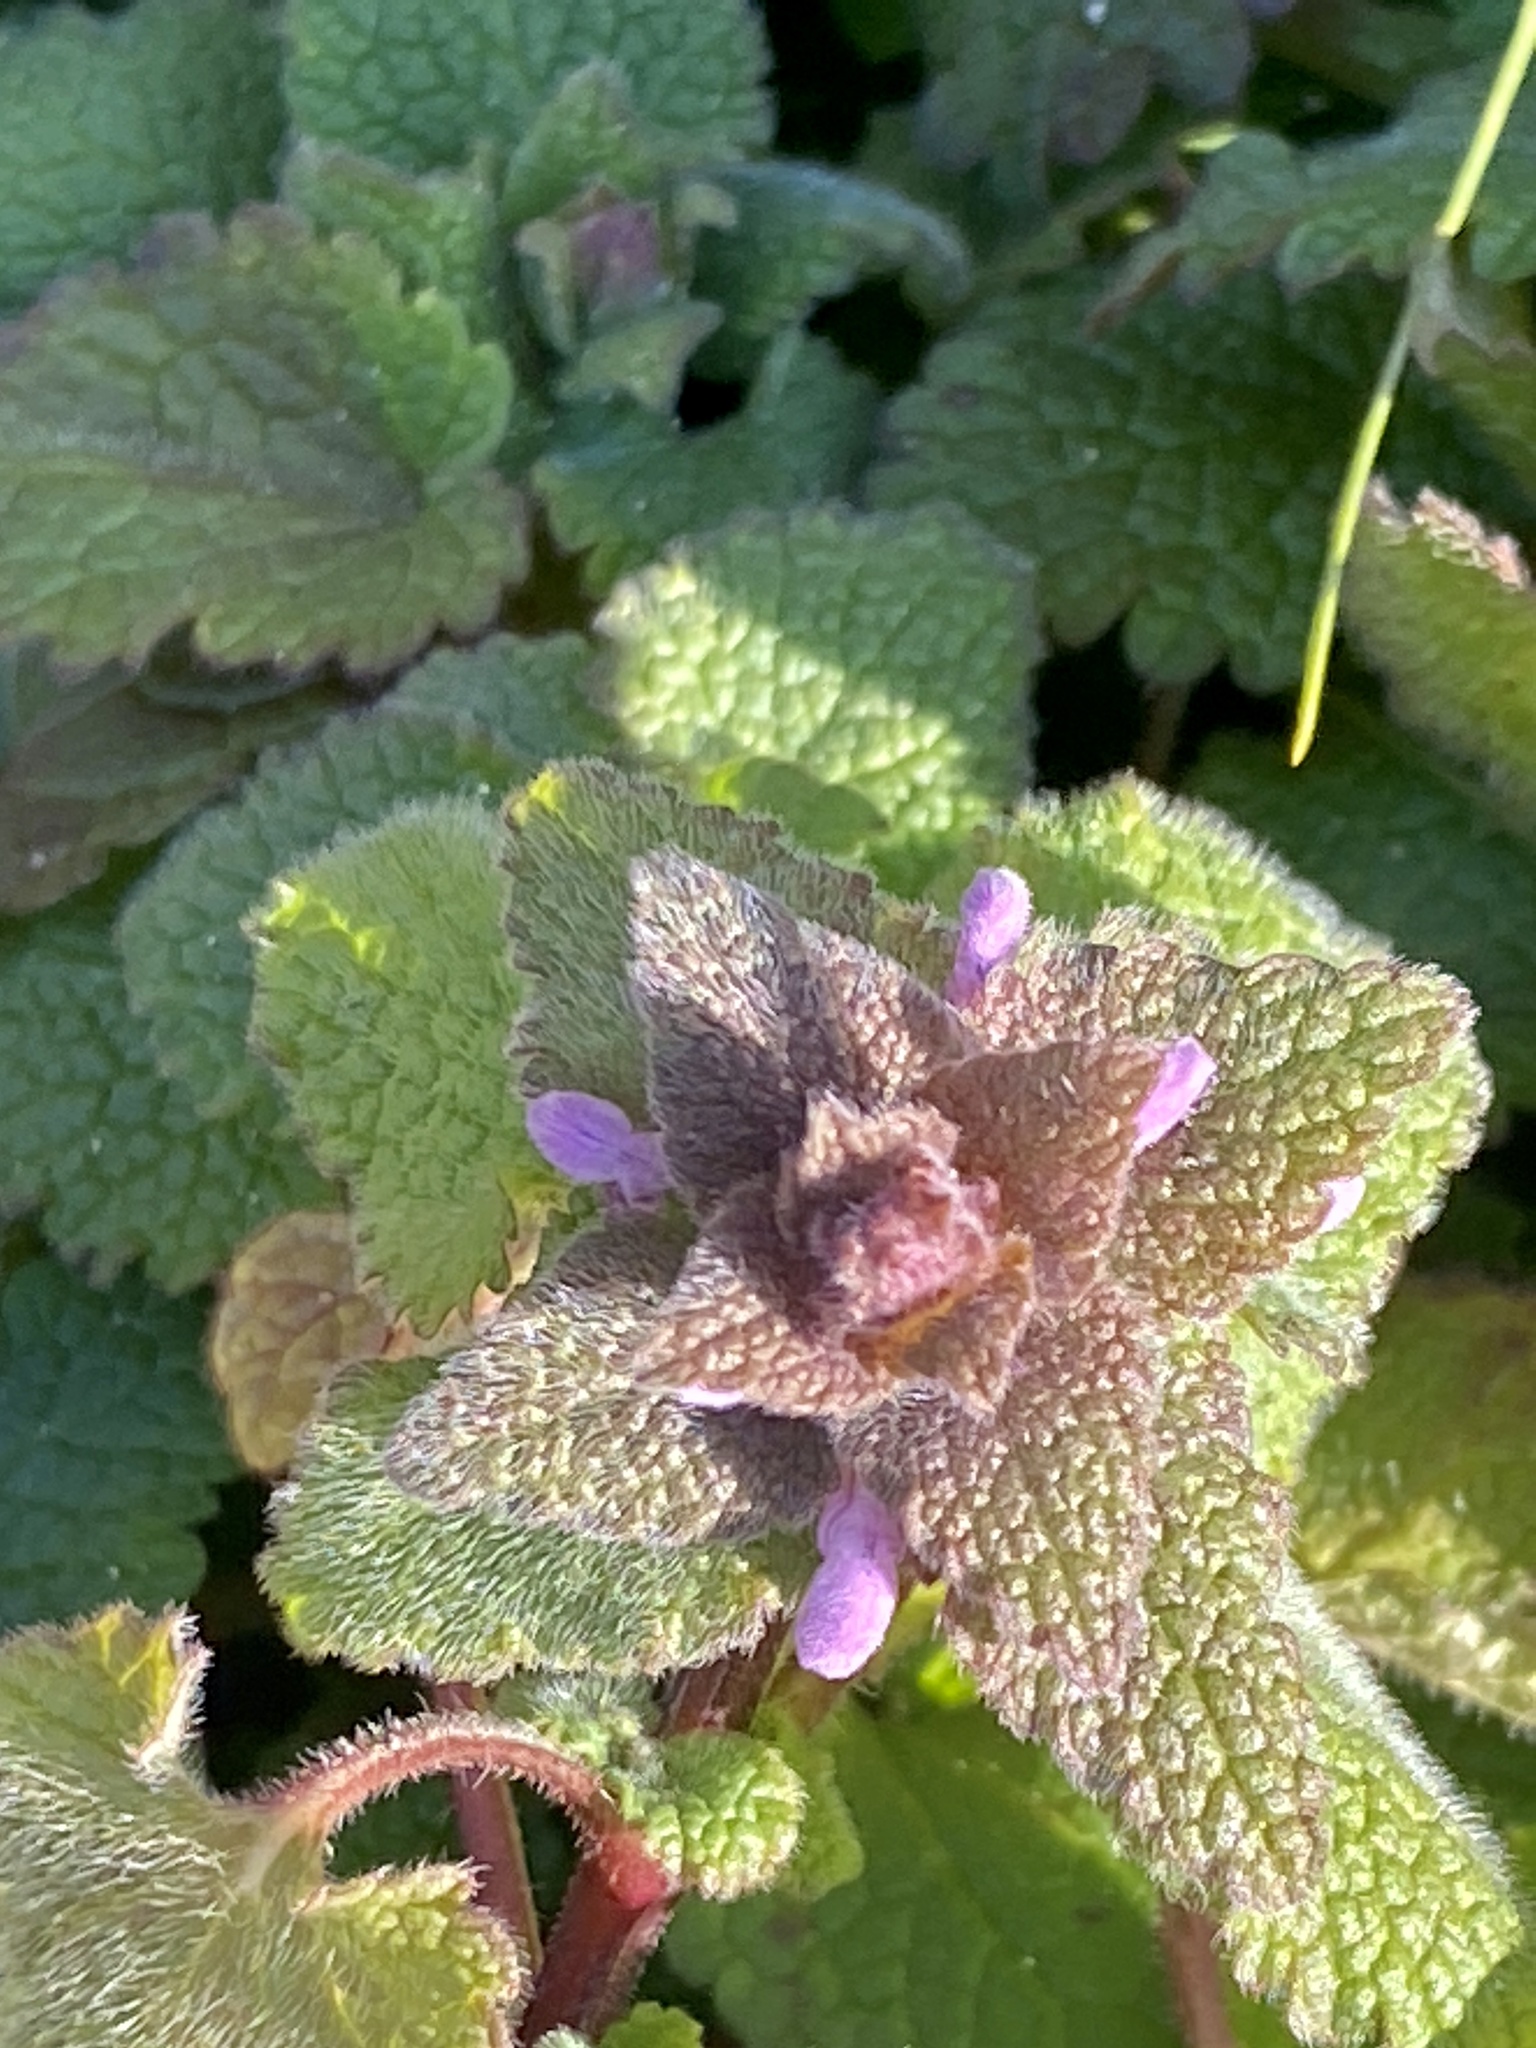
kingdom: Plantae
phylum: Tracheophyta
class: Magnoliopsida
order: Lamiales
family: Lamiaceae
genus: Lamium
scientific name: Lamium purpureum
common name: Red dead-nettle
